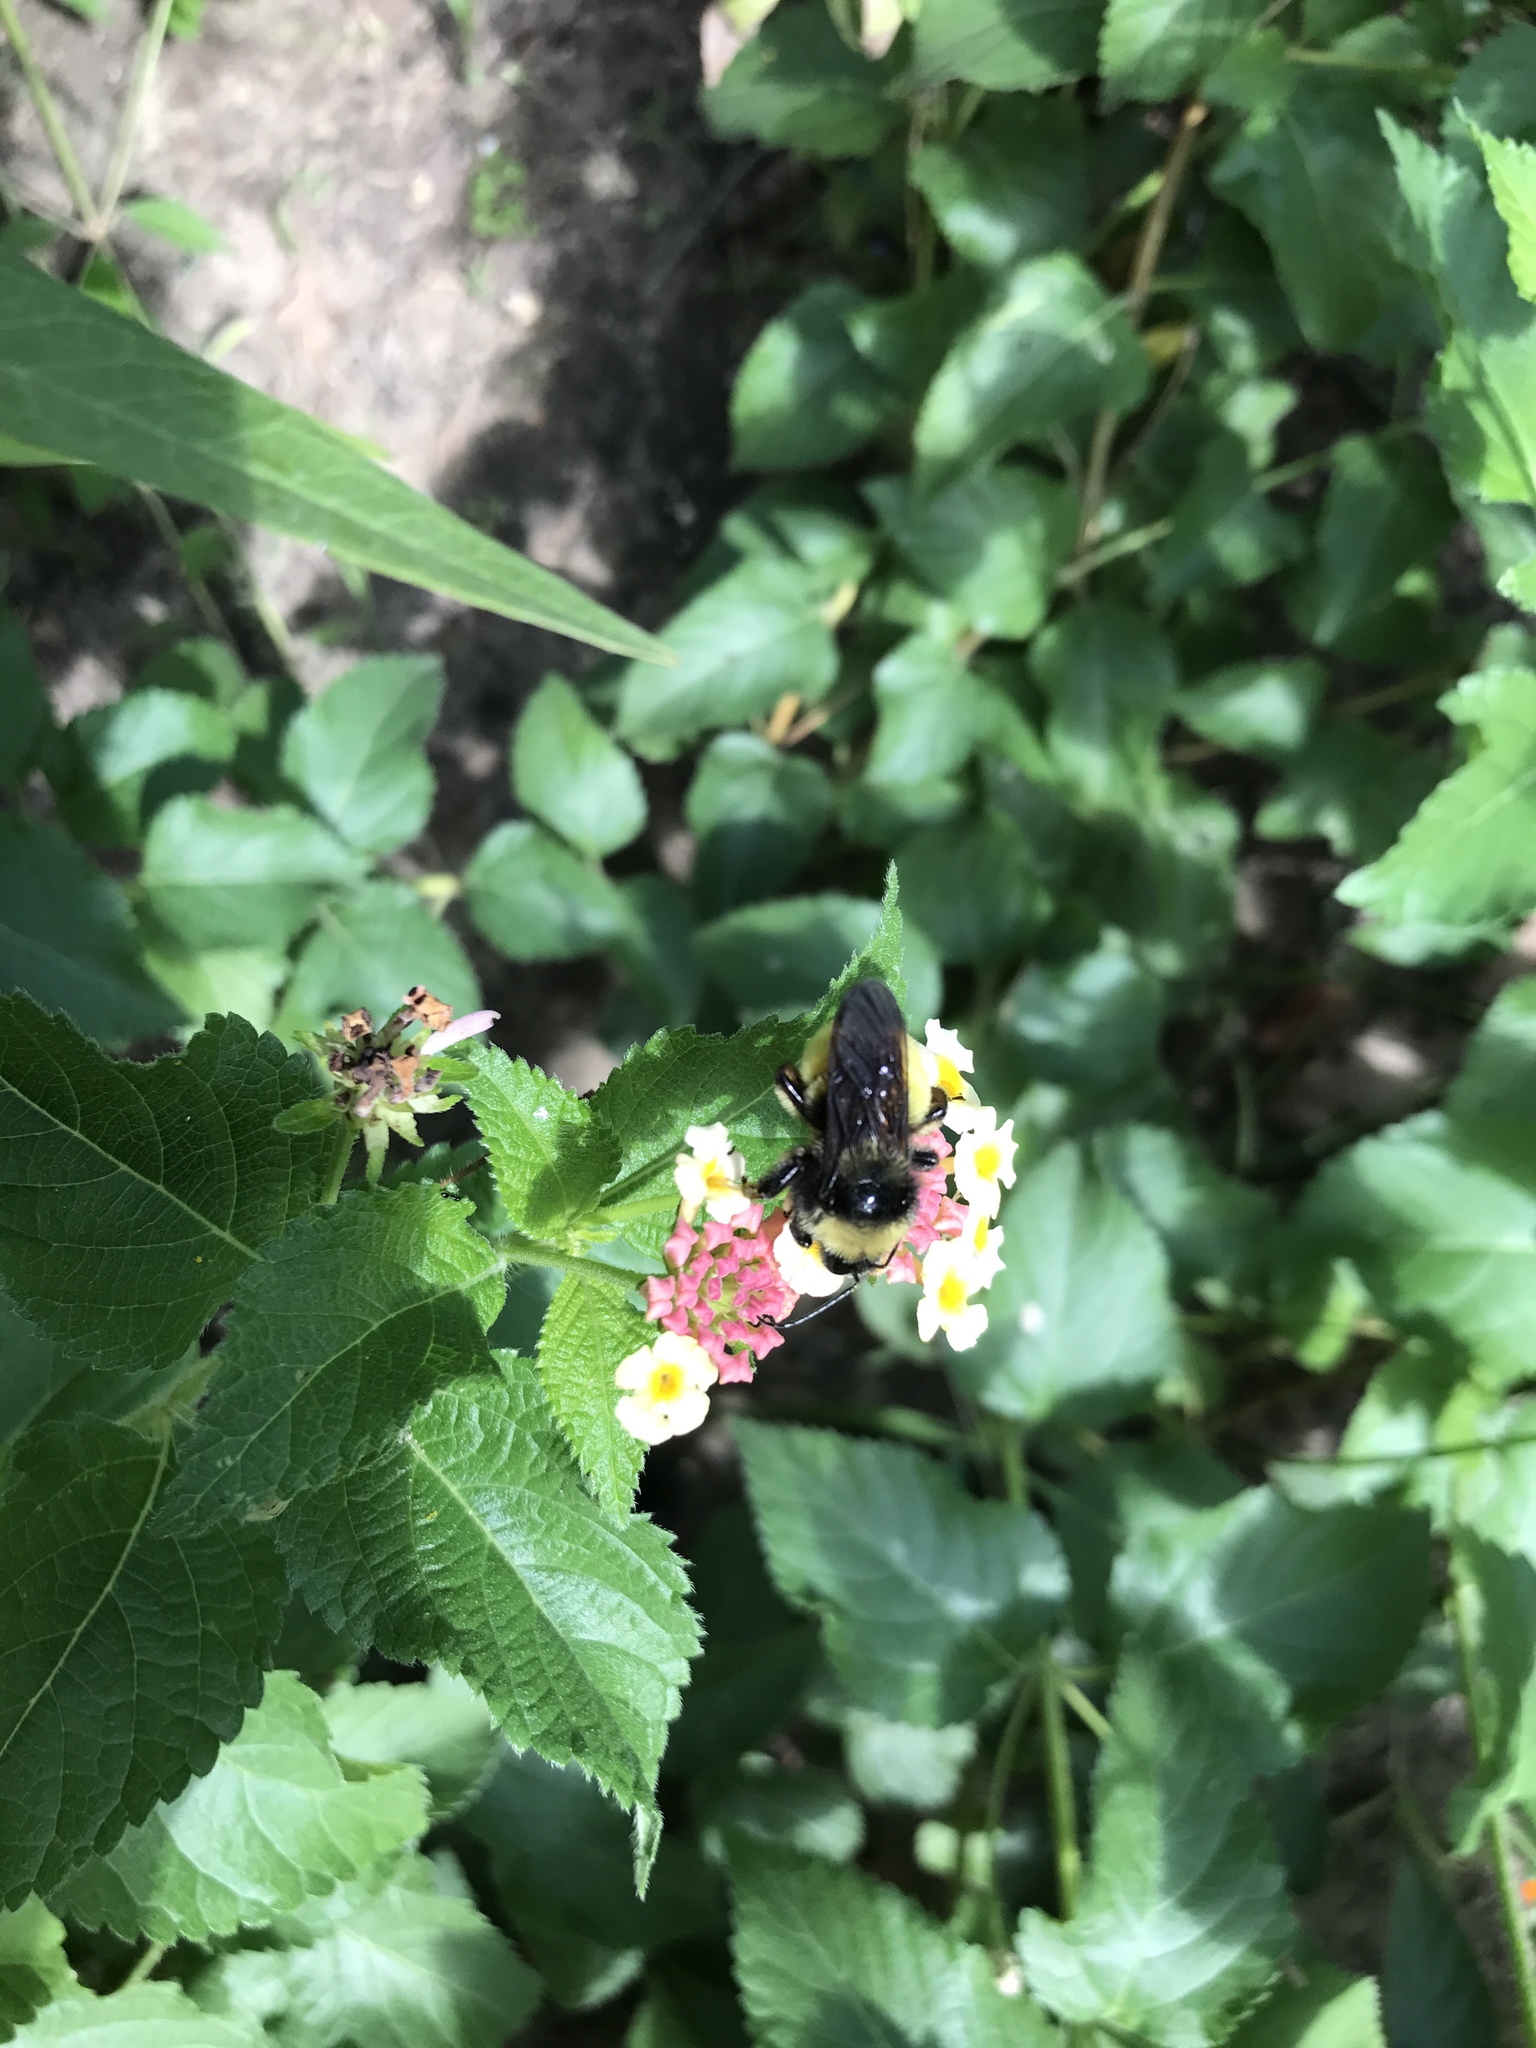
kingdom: Animalia
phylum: Arthropoda
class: Insecta
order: Hymenoptera
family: Apidae
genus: Bombus
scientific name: Bombus pensylvanicus
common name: Bumble bee
